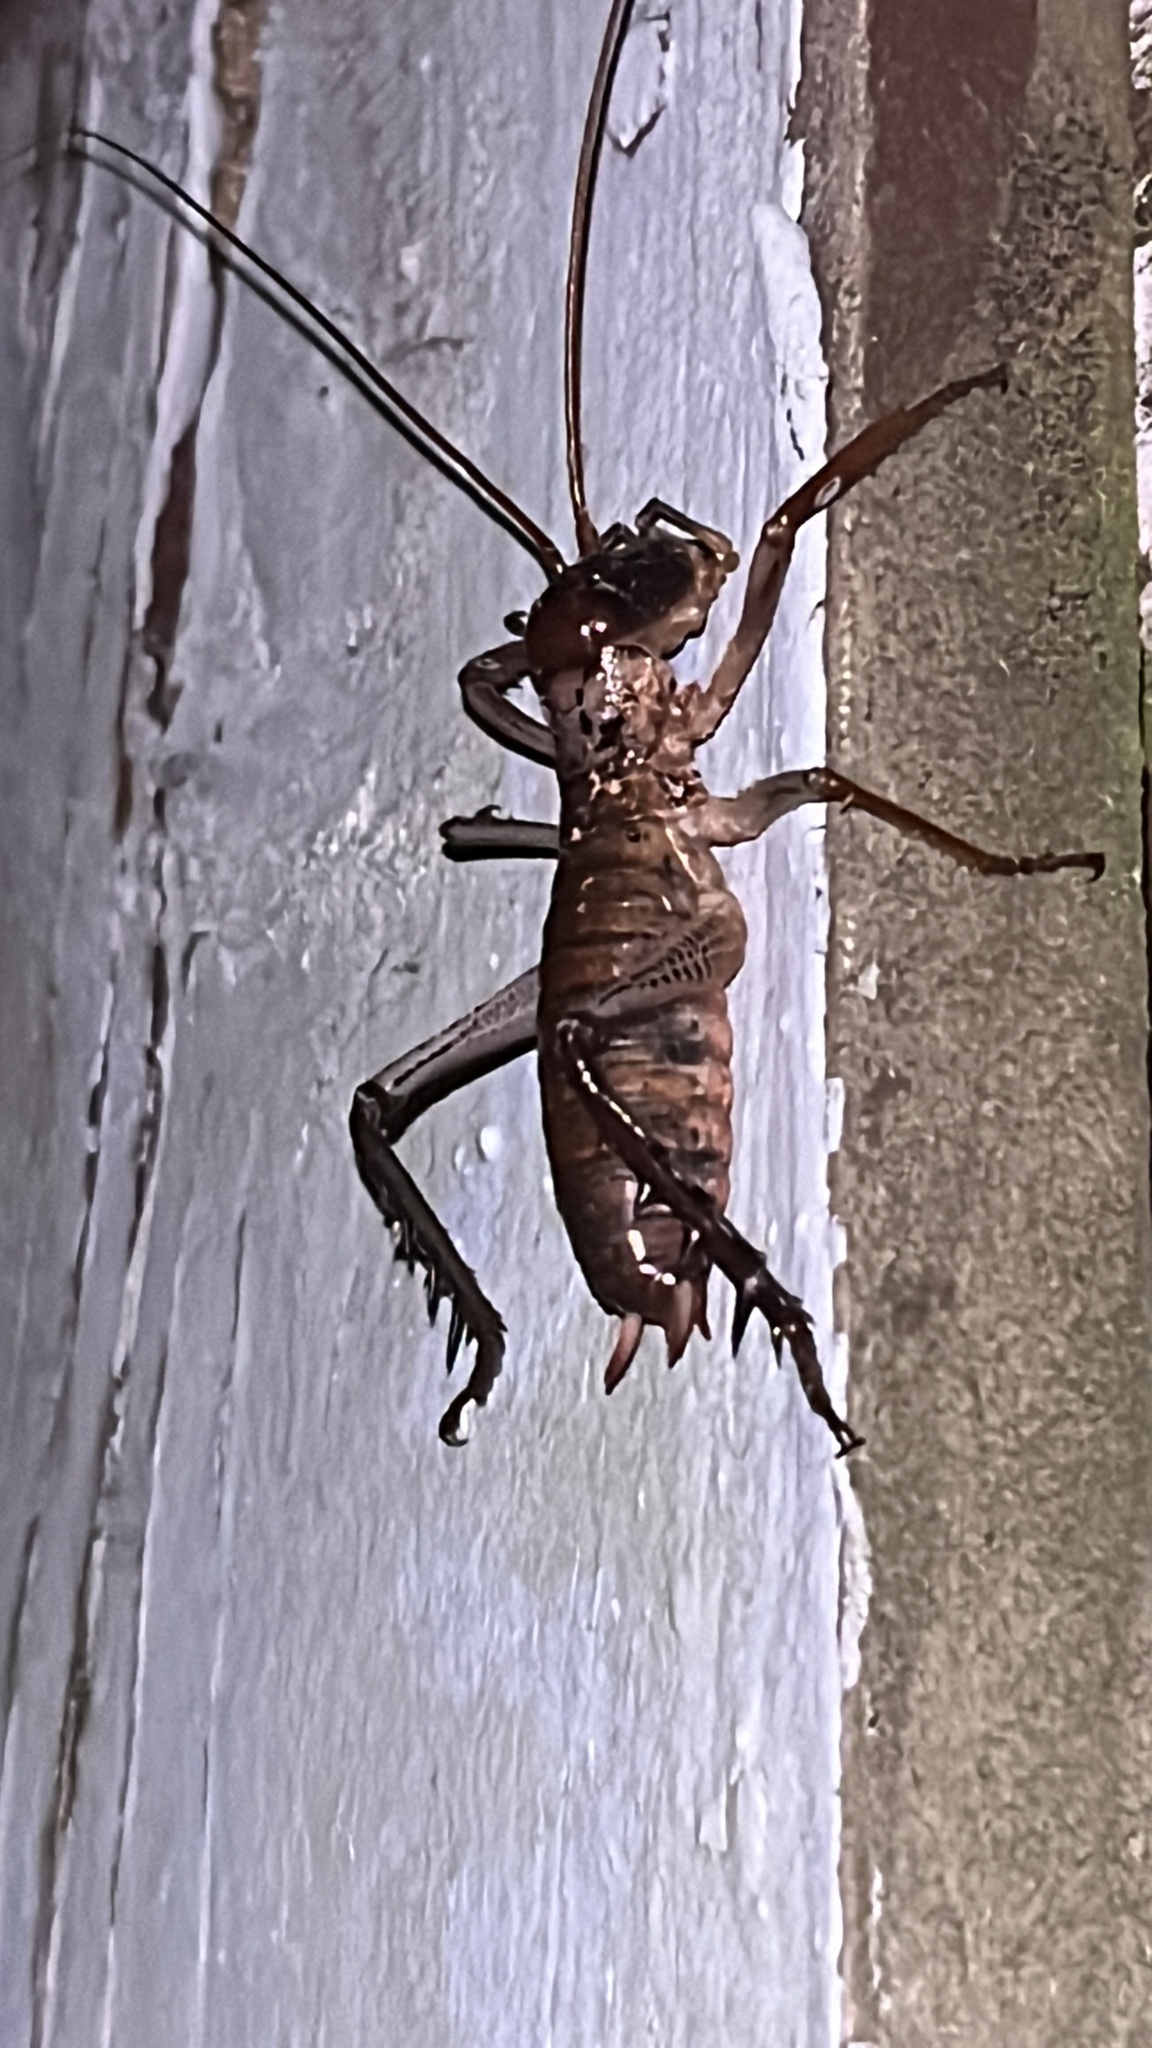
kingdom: Animalia
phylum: Arthropoda
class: Insecta
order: Orthoptera
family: Anostostomatidae
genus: Hemideina
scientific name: Hemideina thoracica
